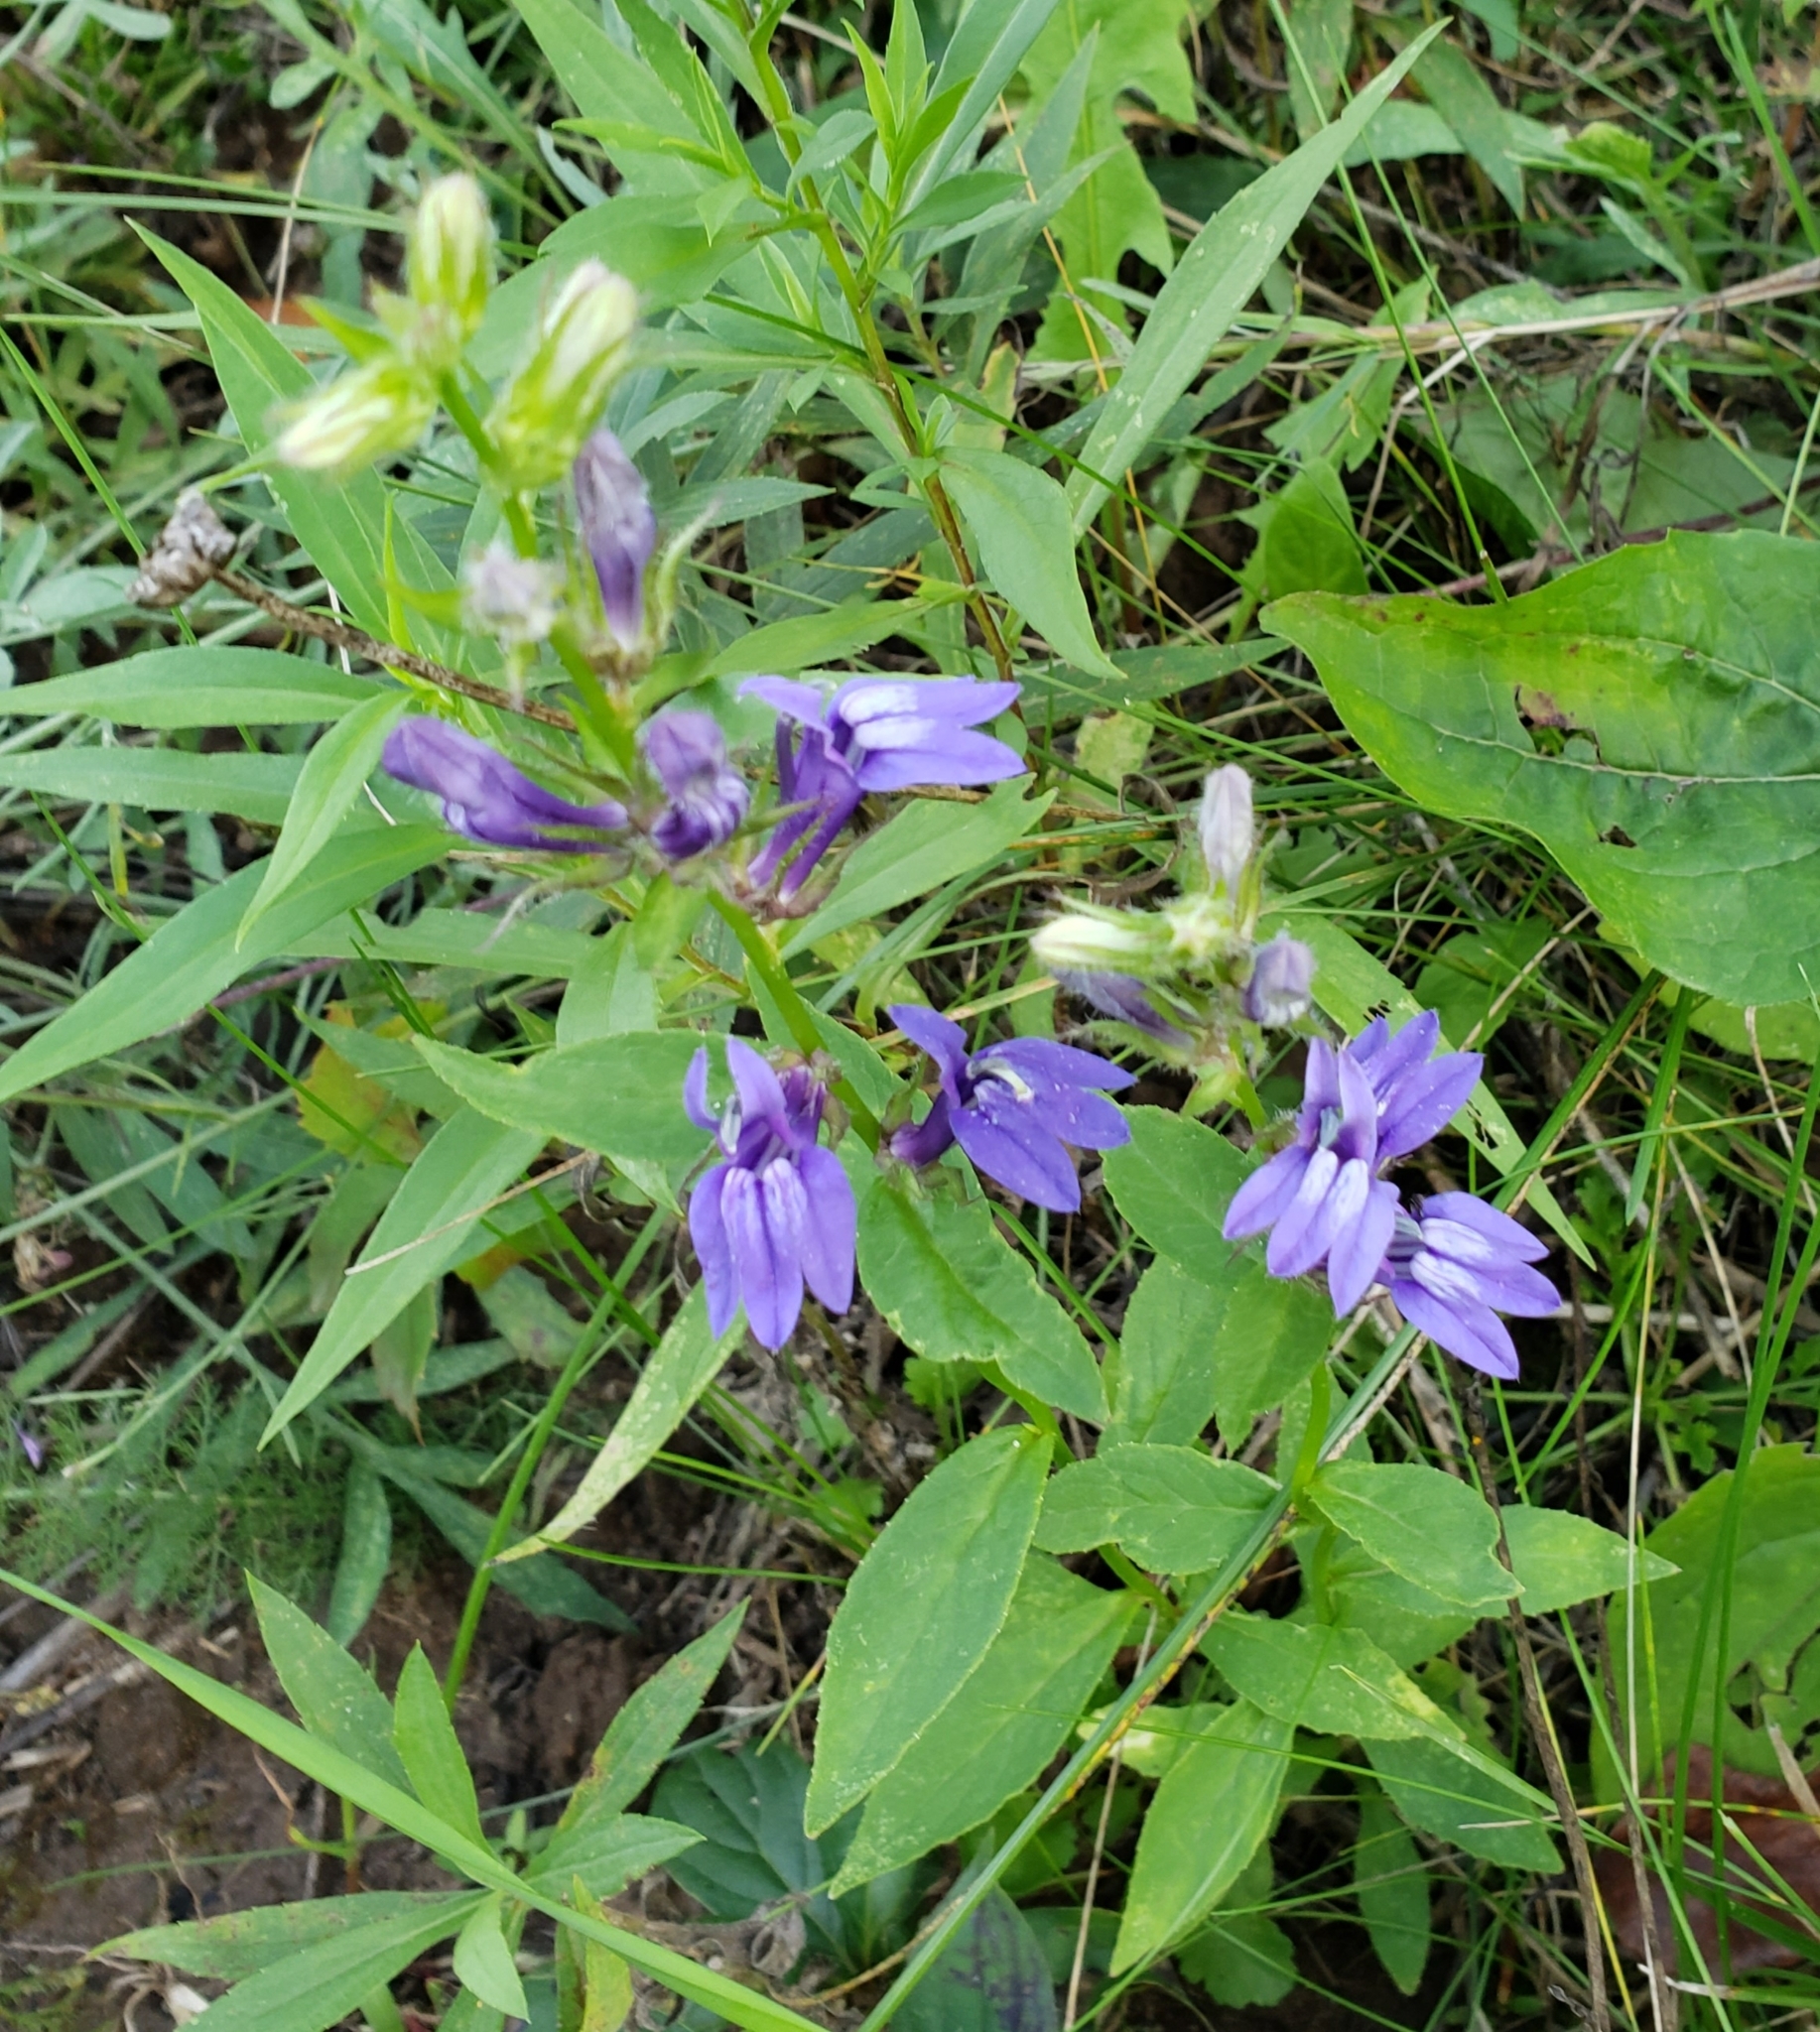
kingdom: Plantae
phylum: Tracheophyta
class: Magnoliopsida
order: Asterales
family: Campanulaceae
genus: Lobelia
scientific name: Lobelia siphilitica
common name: Great lobelia
